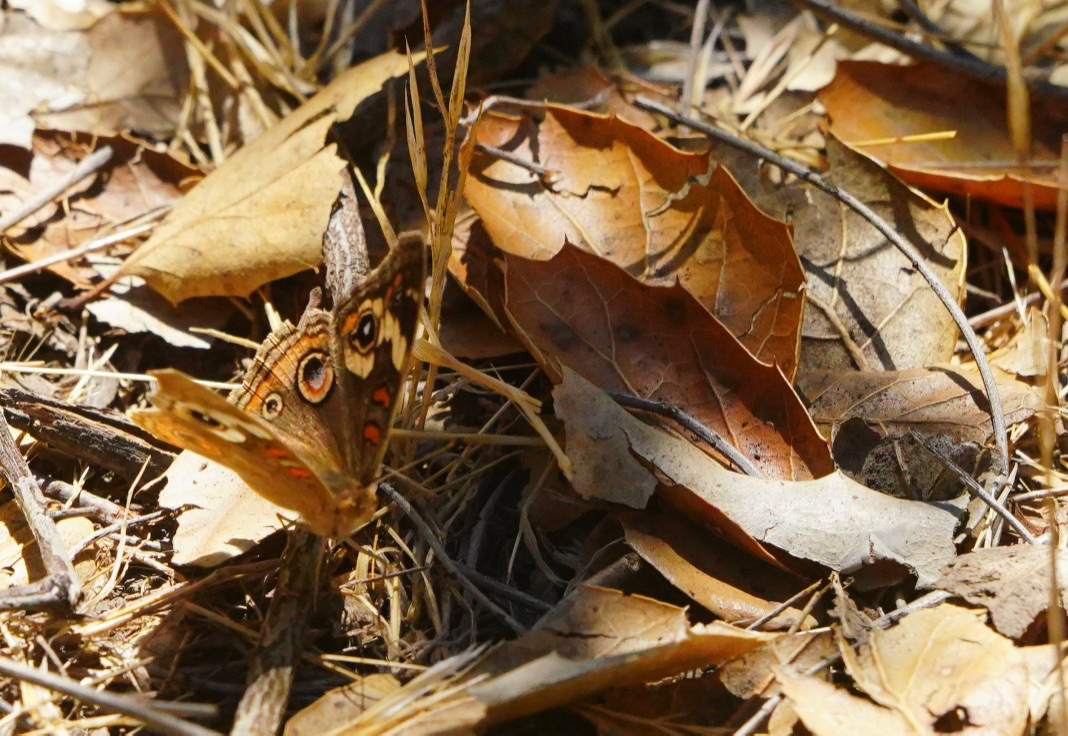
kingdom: Animalia
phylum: Arthropoda
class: Insecta
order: Lepidoptera
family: Nymphalidae
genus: Junonia
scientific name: Junonia grisea
